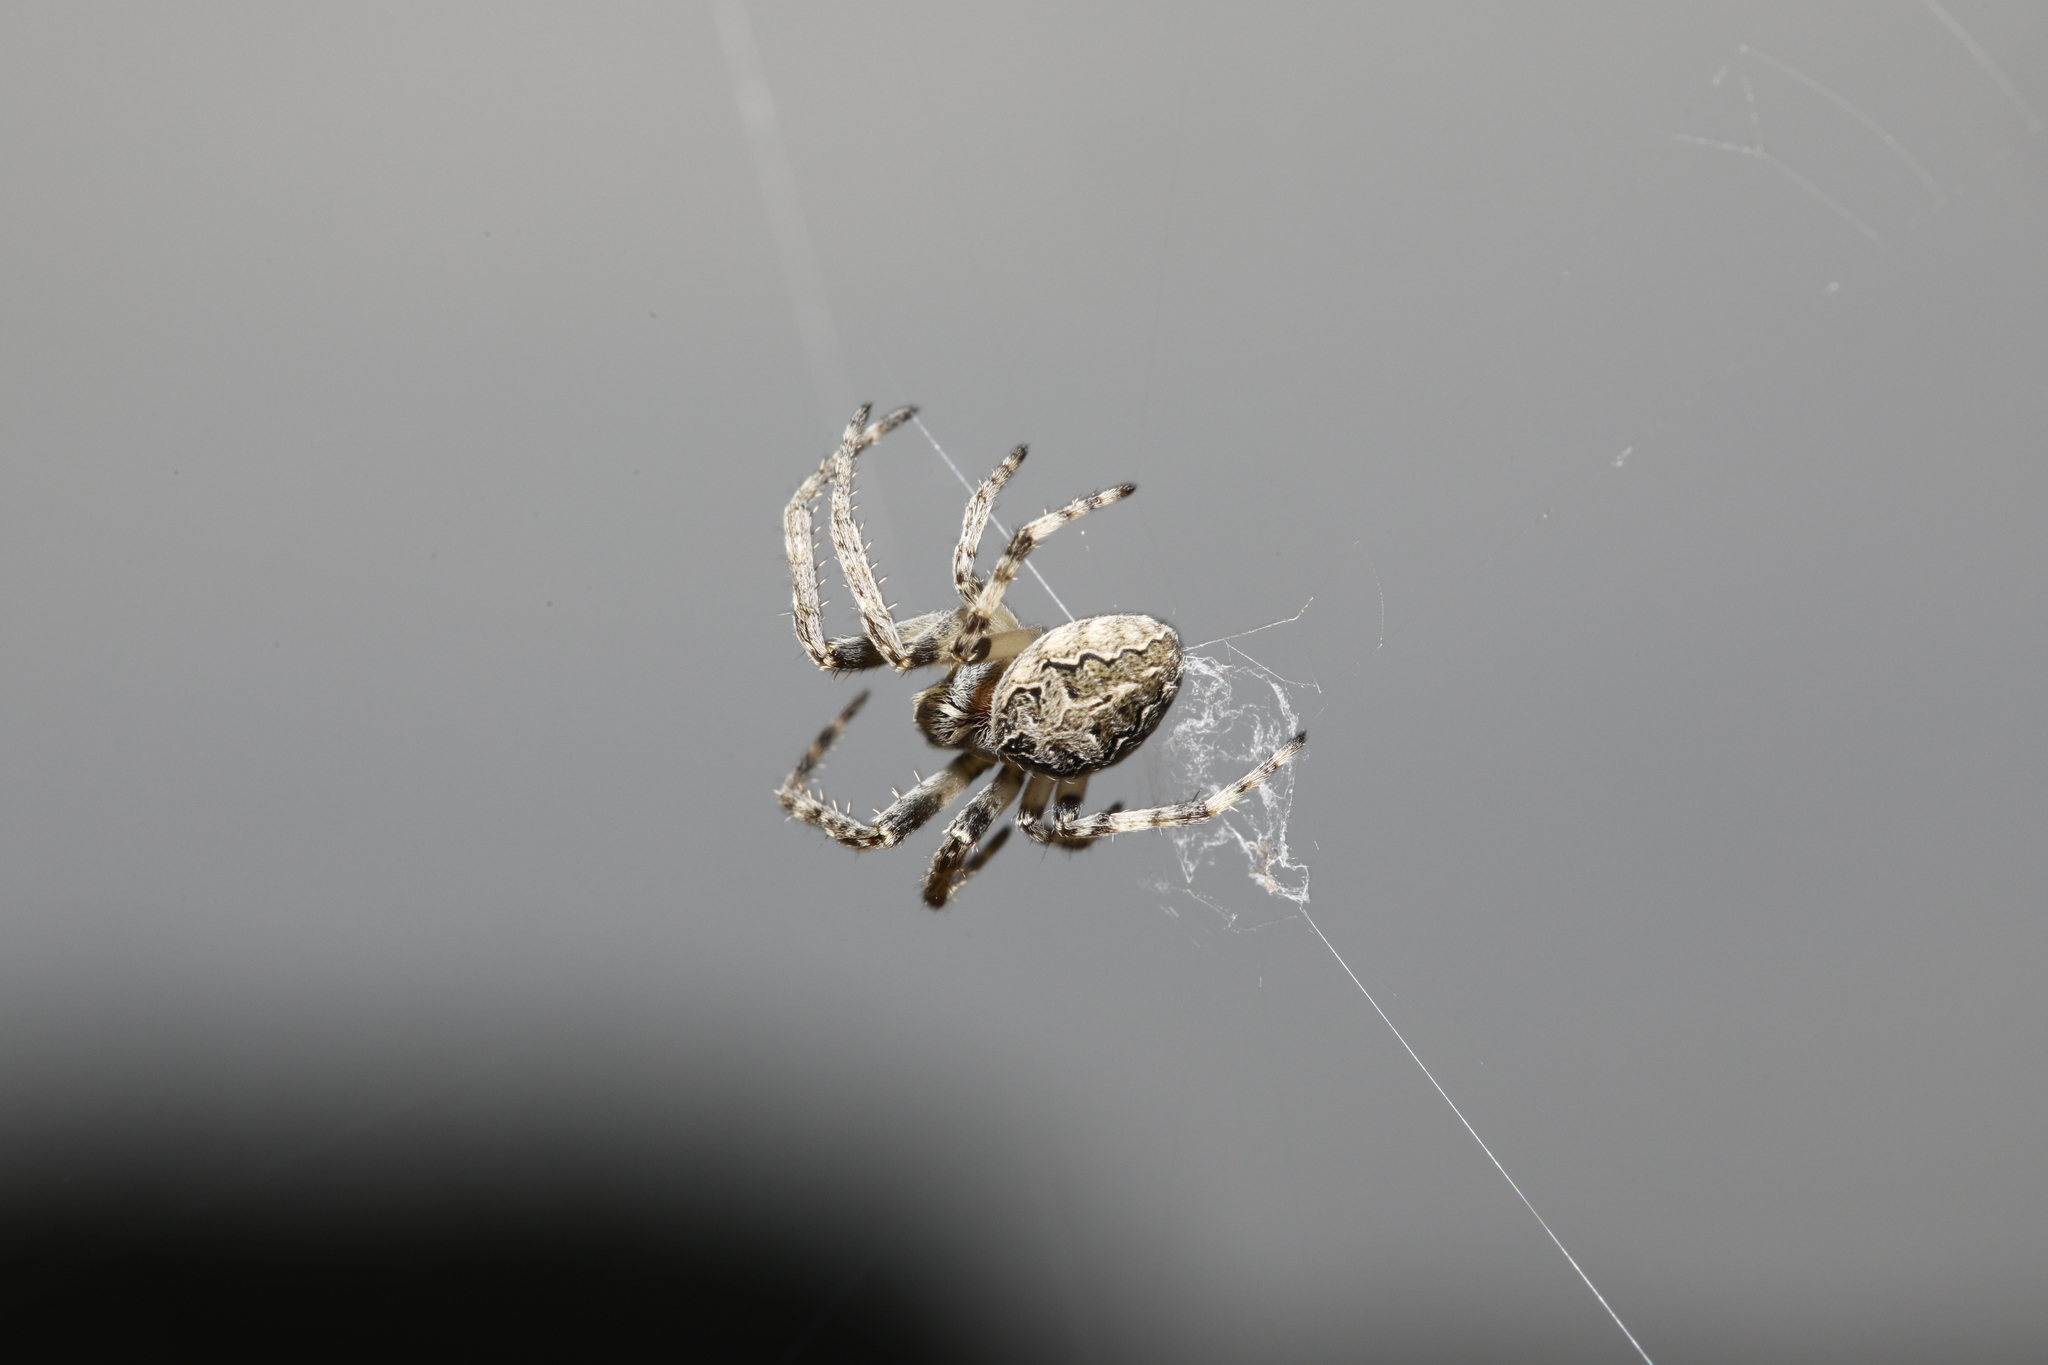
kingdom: Animalia
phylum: Arthropoda
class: Arachnida
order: Araneae
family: Araneidae
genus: Zygiella
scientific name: Zygiella x-notata
